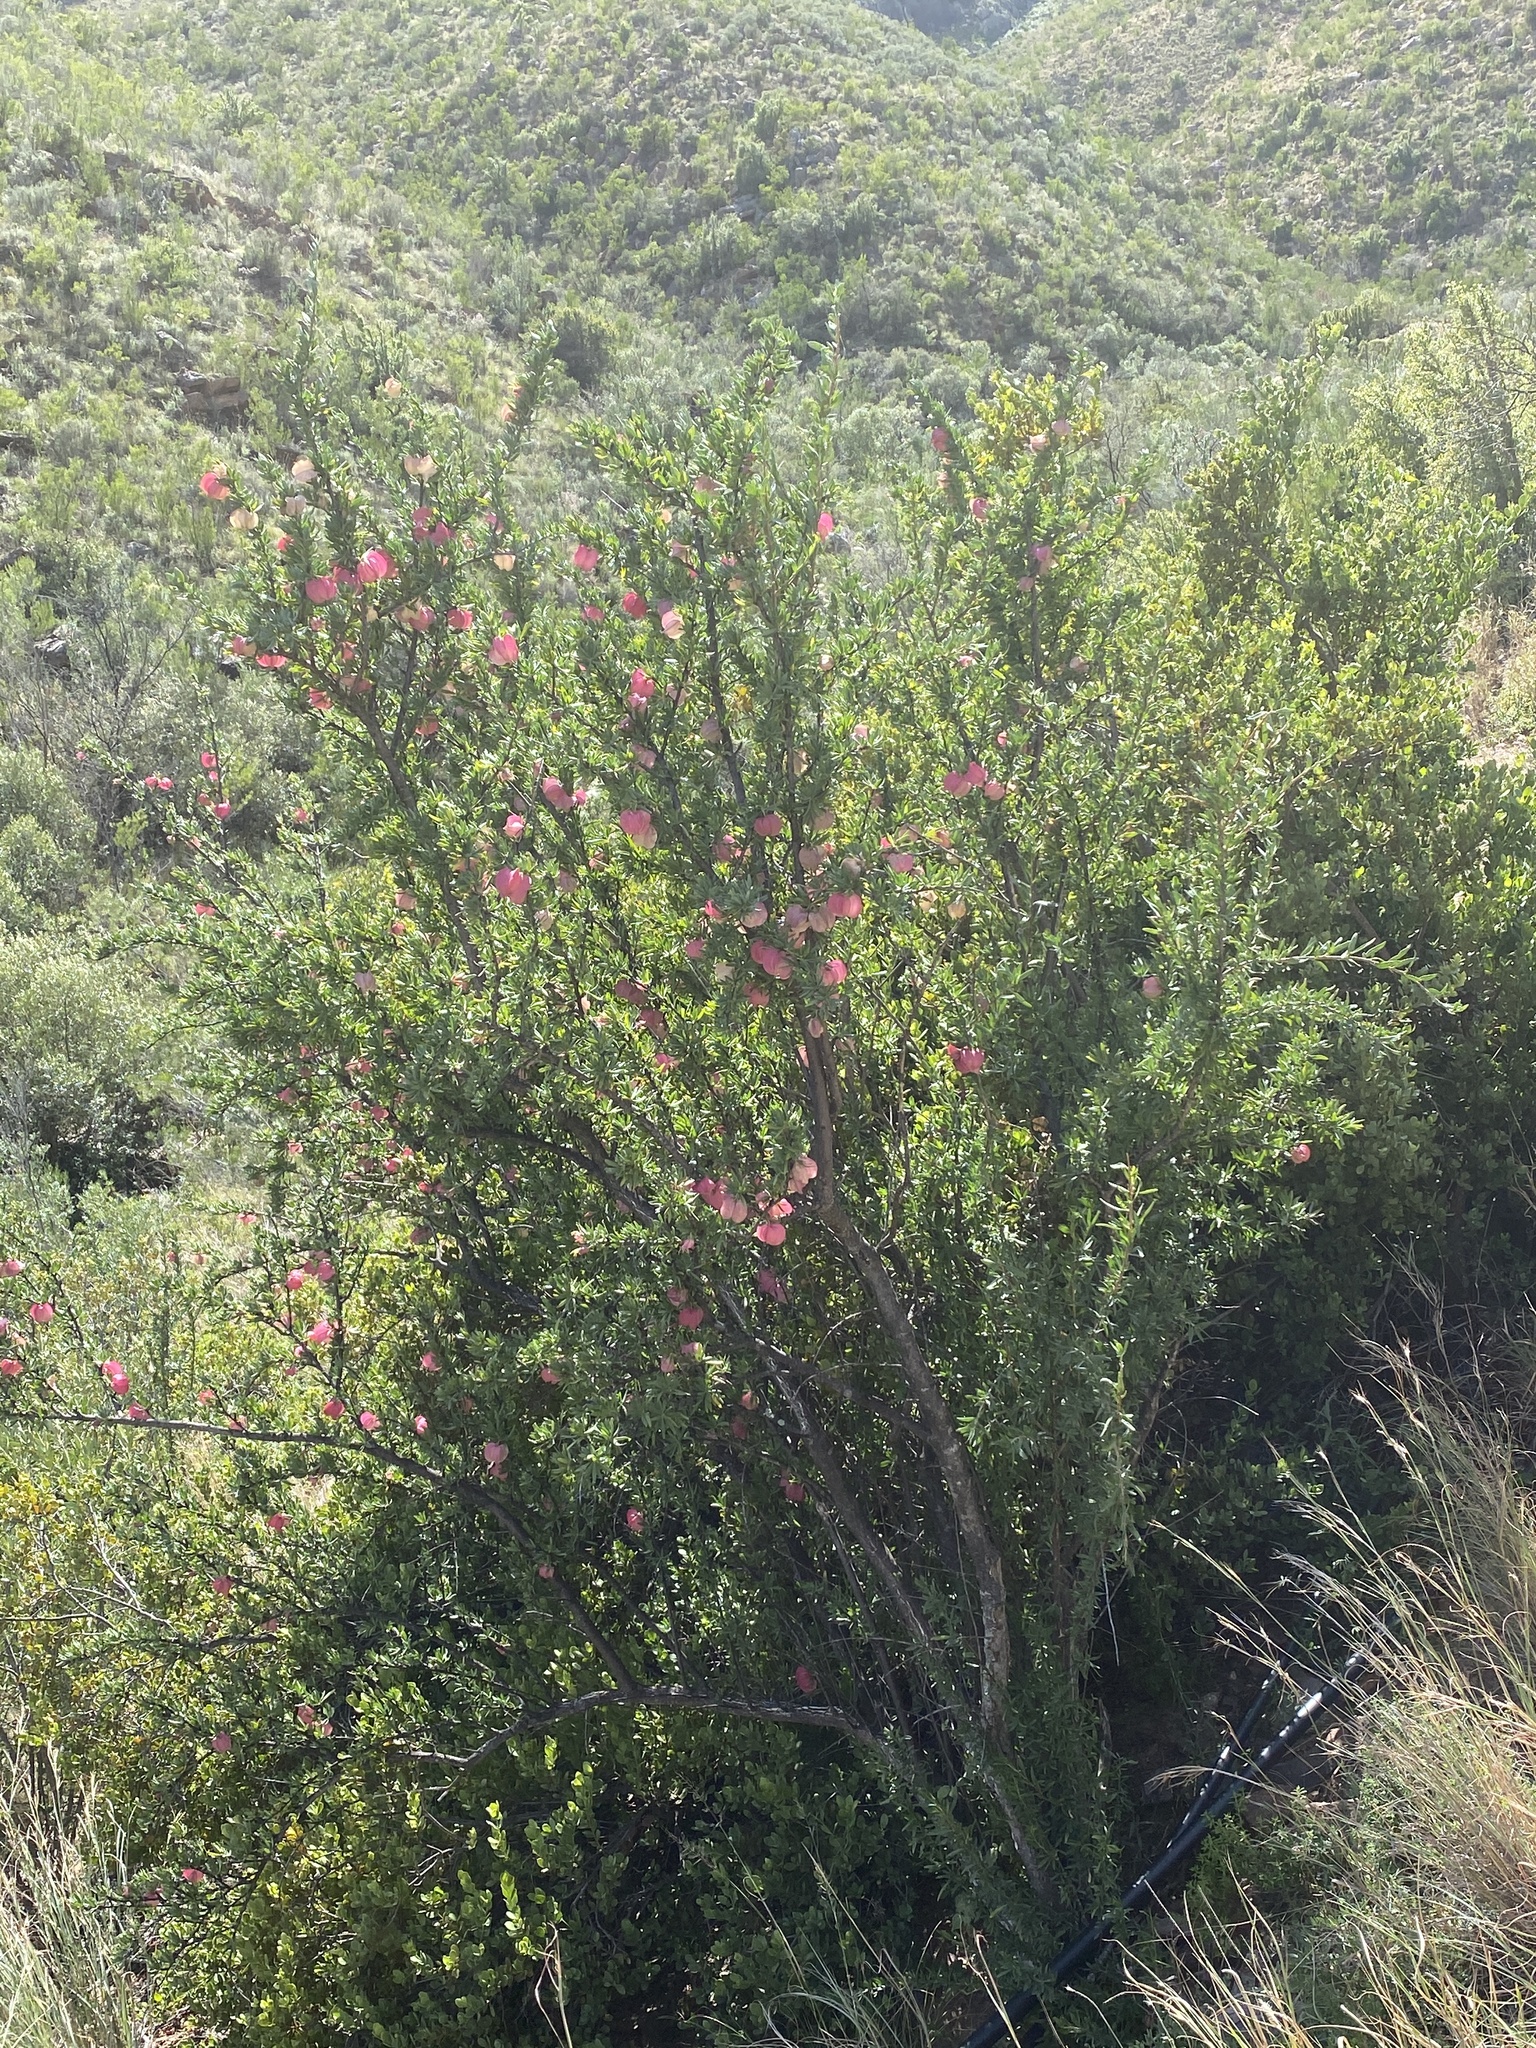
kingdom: Plantae
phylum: Tracheophyta
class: Magnoliopsida
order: Sapindales
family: Meliaceae
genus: Nymania
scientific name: Nymania capensis
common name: Chinese lantern tree
